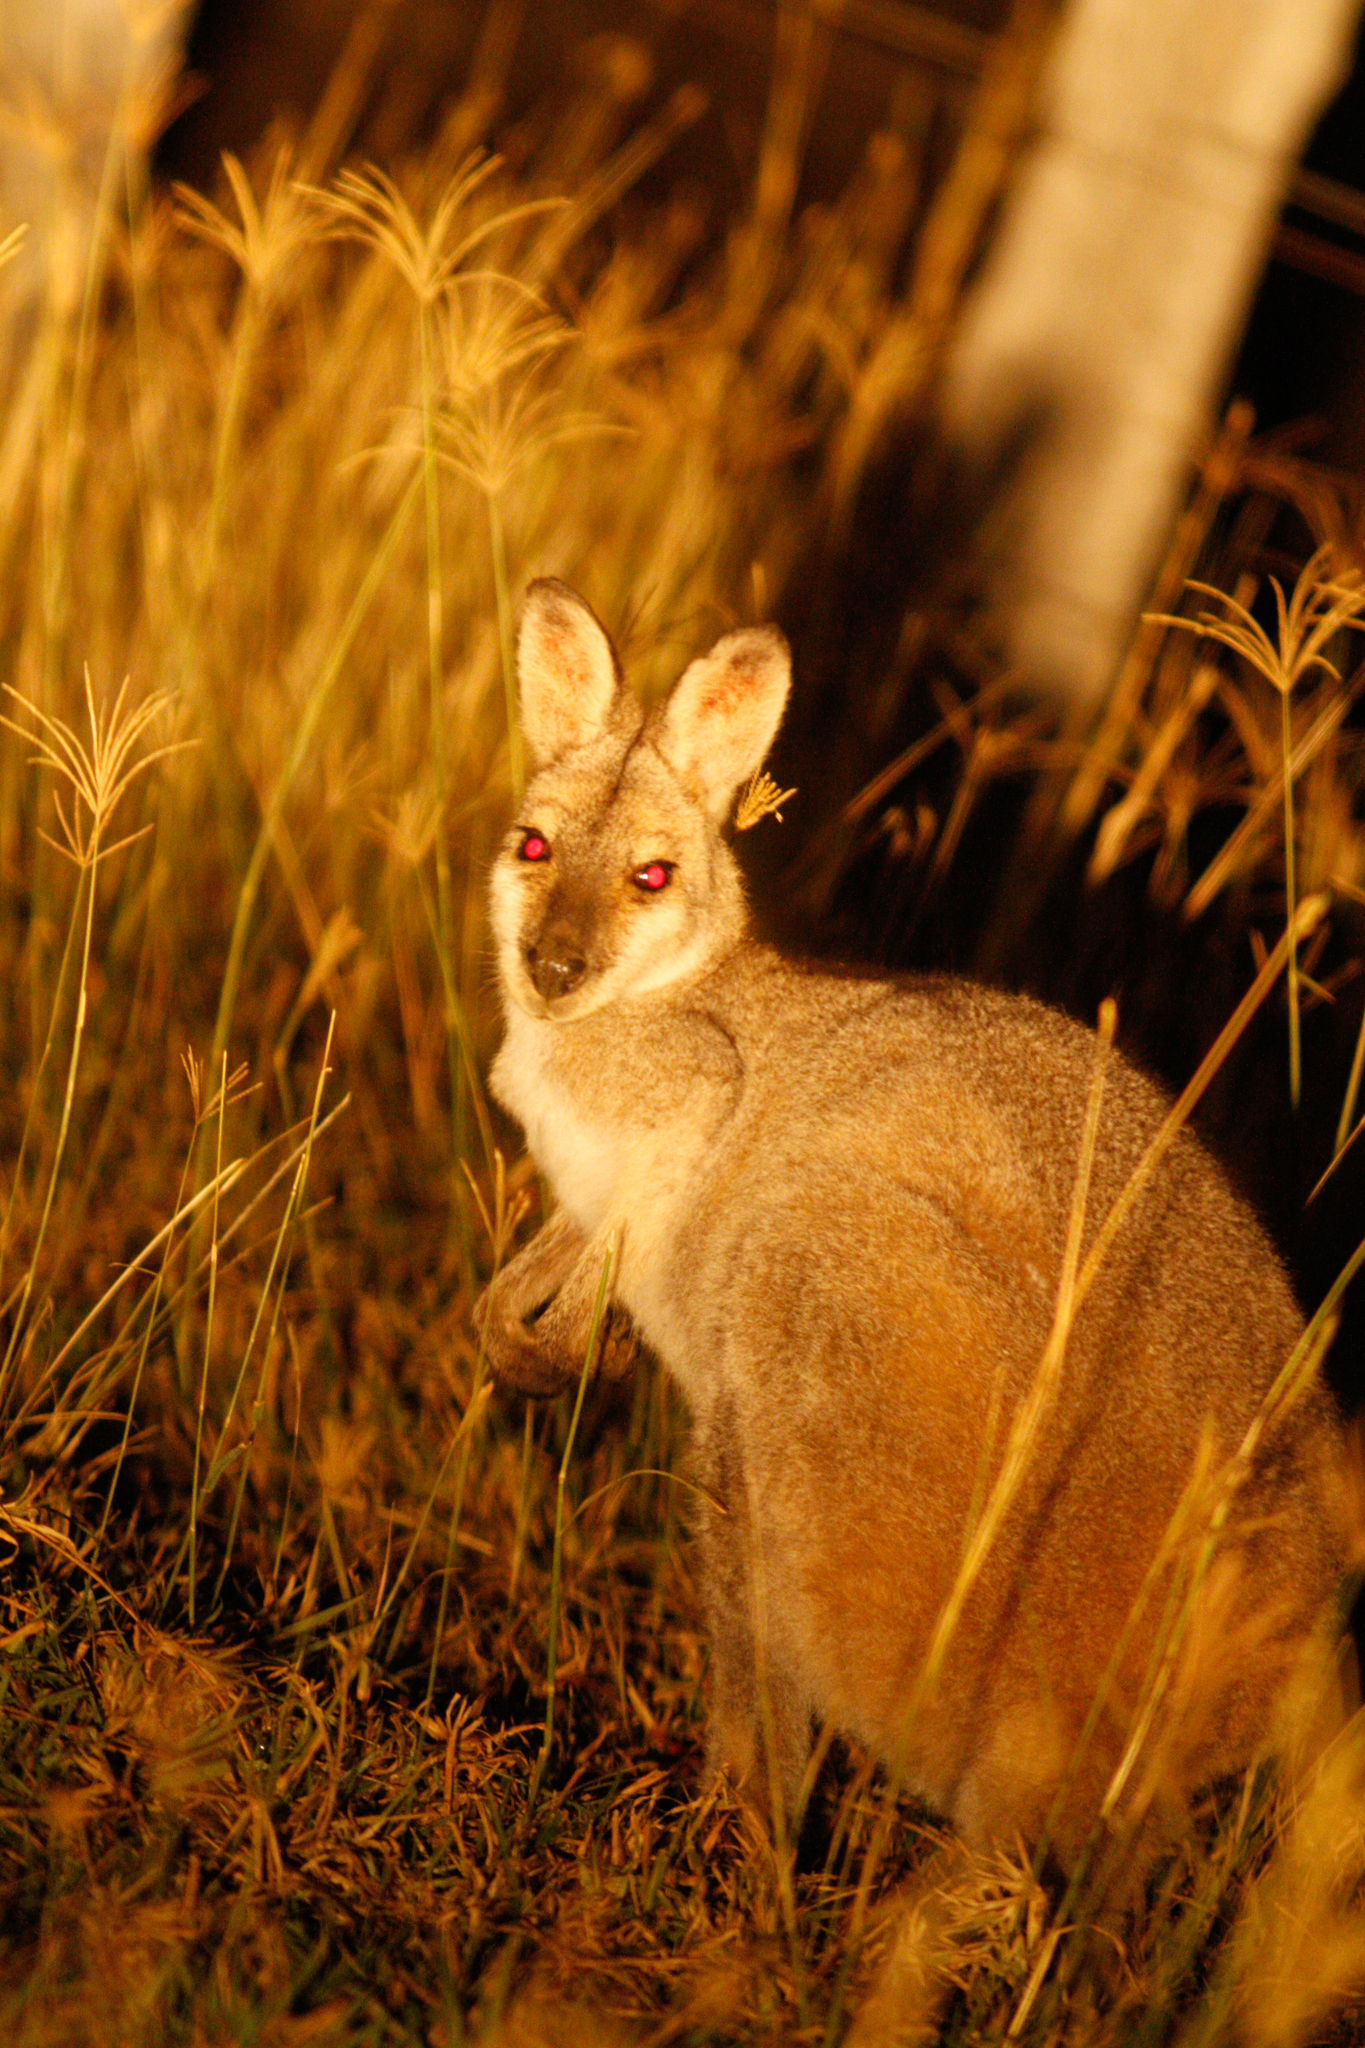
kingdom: Animalia
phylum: Chordata
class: Mammalia
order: Diprotodontia
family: Macropodidae
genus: Notamacropus
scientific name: Notamacropus rufogriseus
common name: Red-necked wallaby
